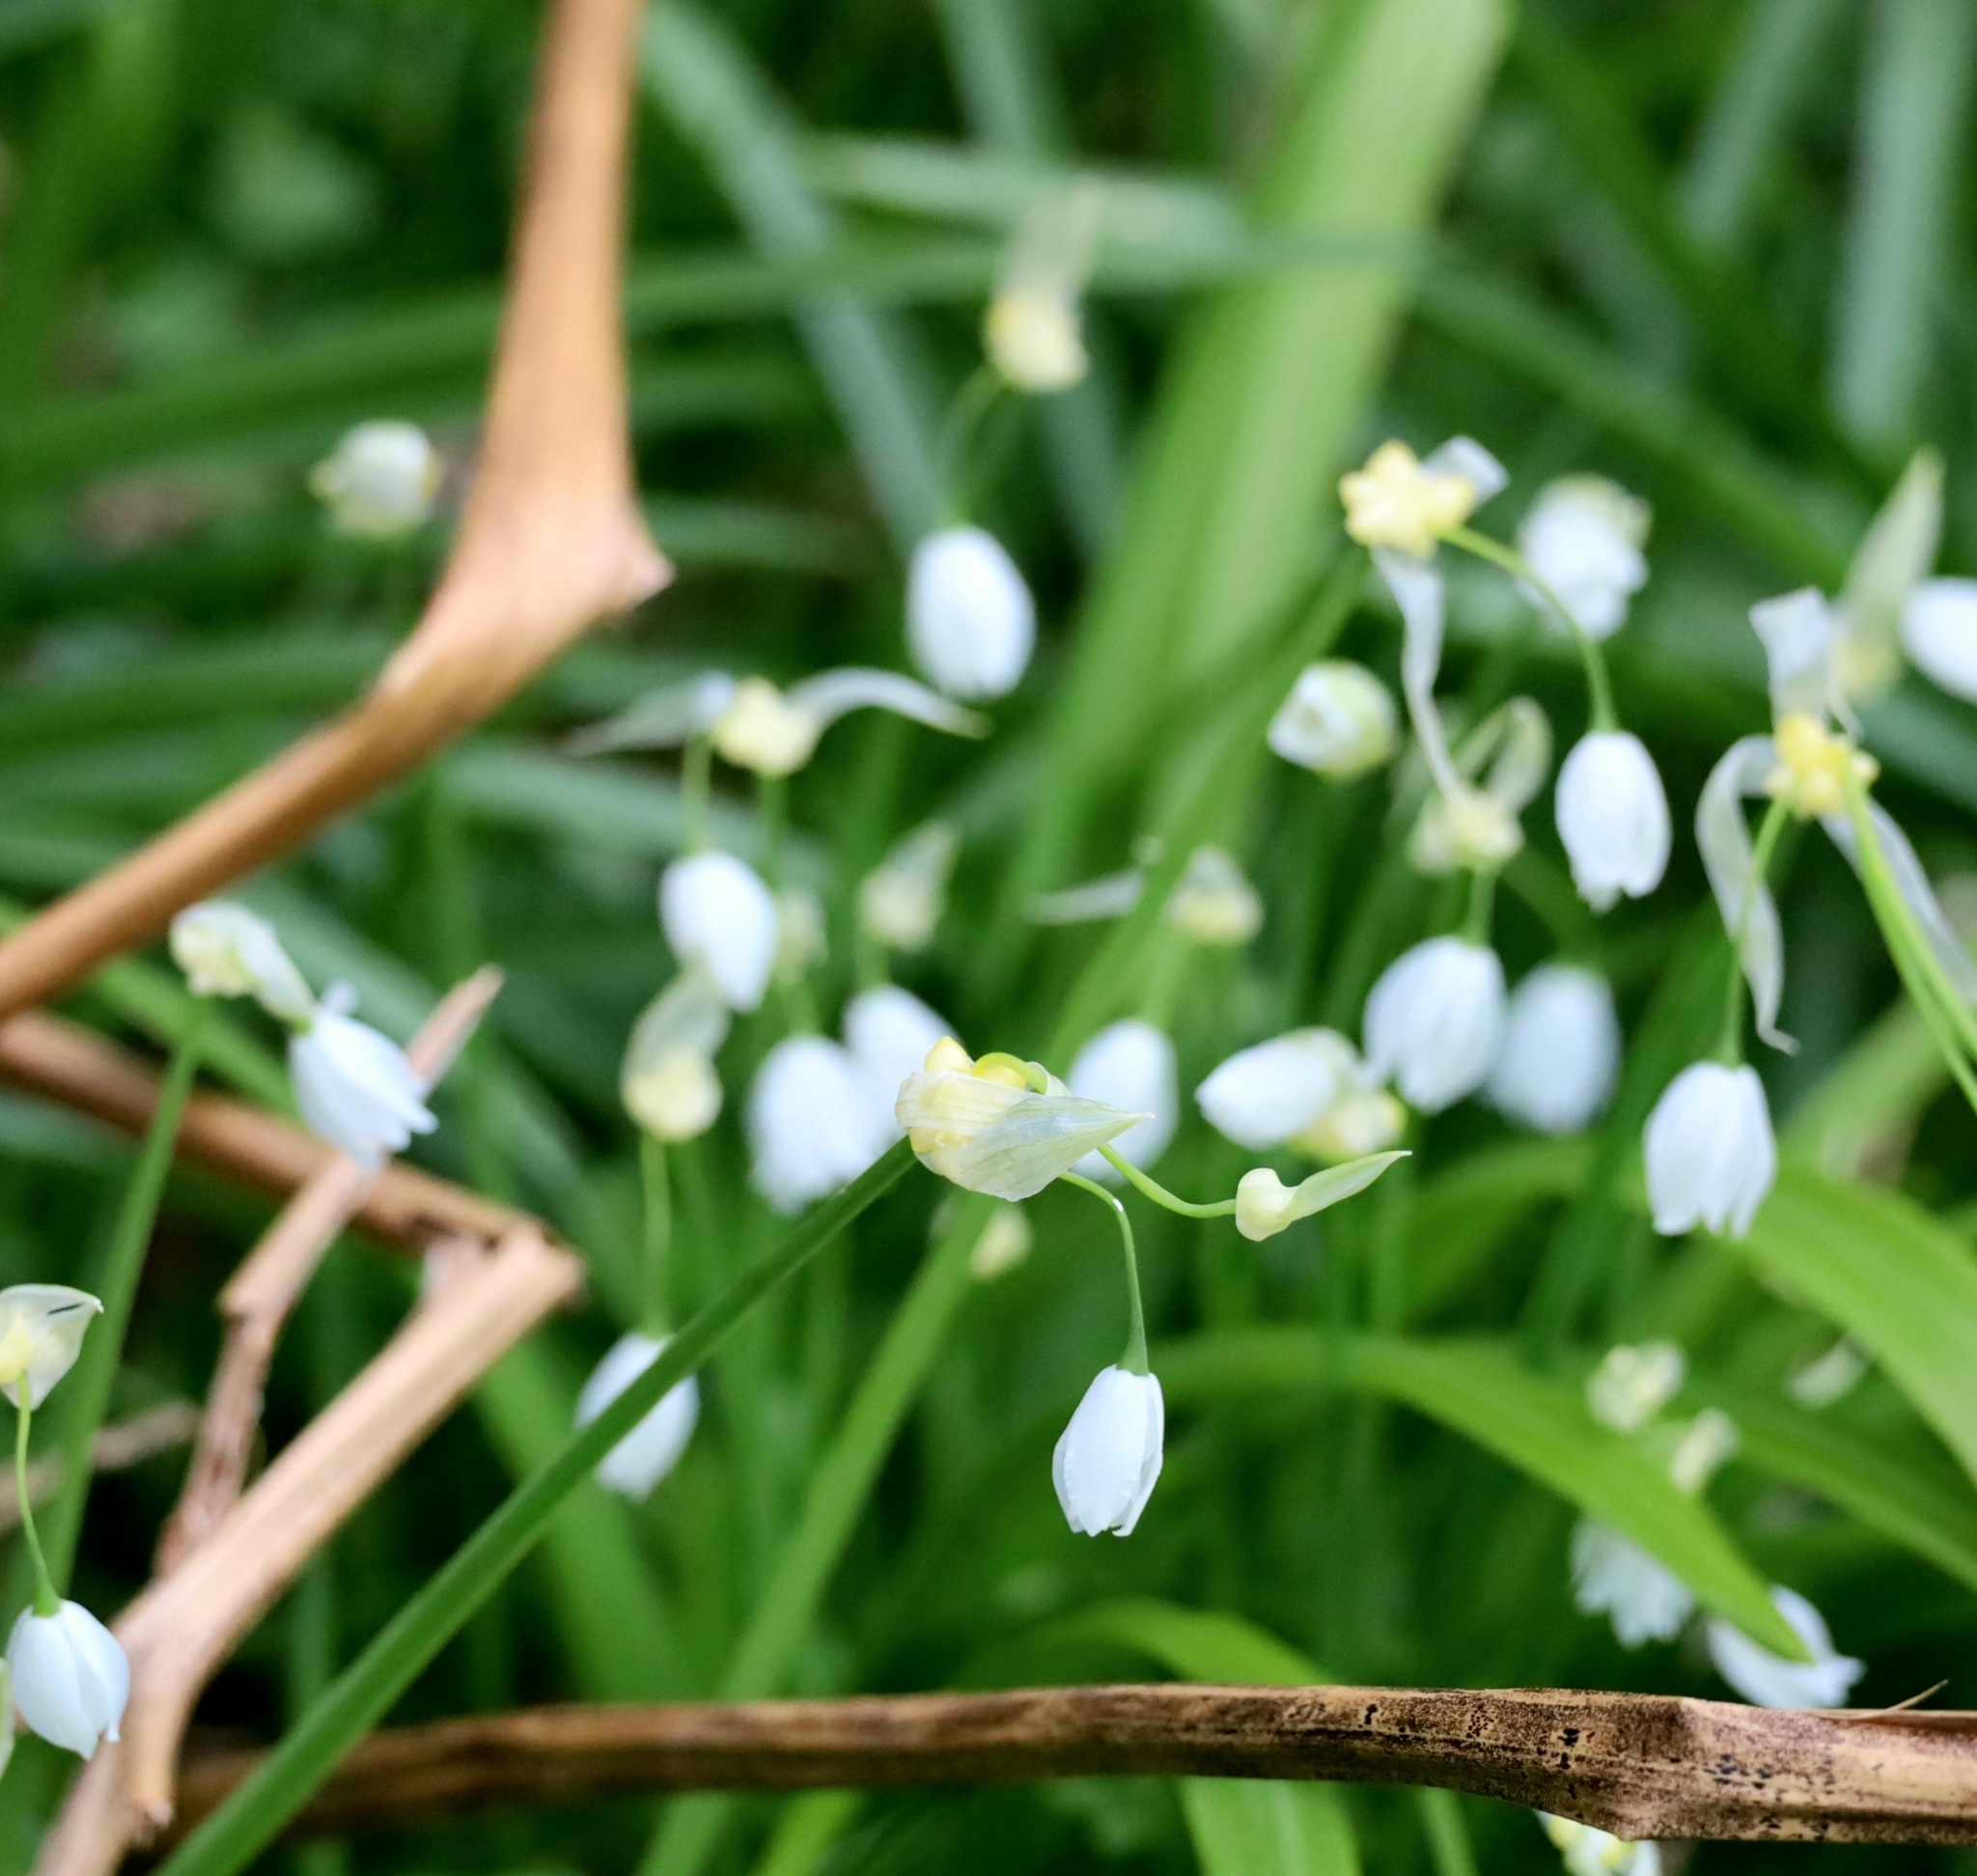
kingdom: Plantae
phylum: Tracheophyta
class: Liliopsida
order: Asparagales
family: Amaryllidaceae
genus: Allium
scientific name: Allium paradoxum
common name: Few-flowered garlic
